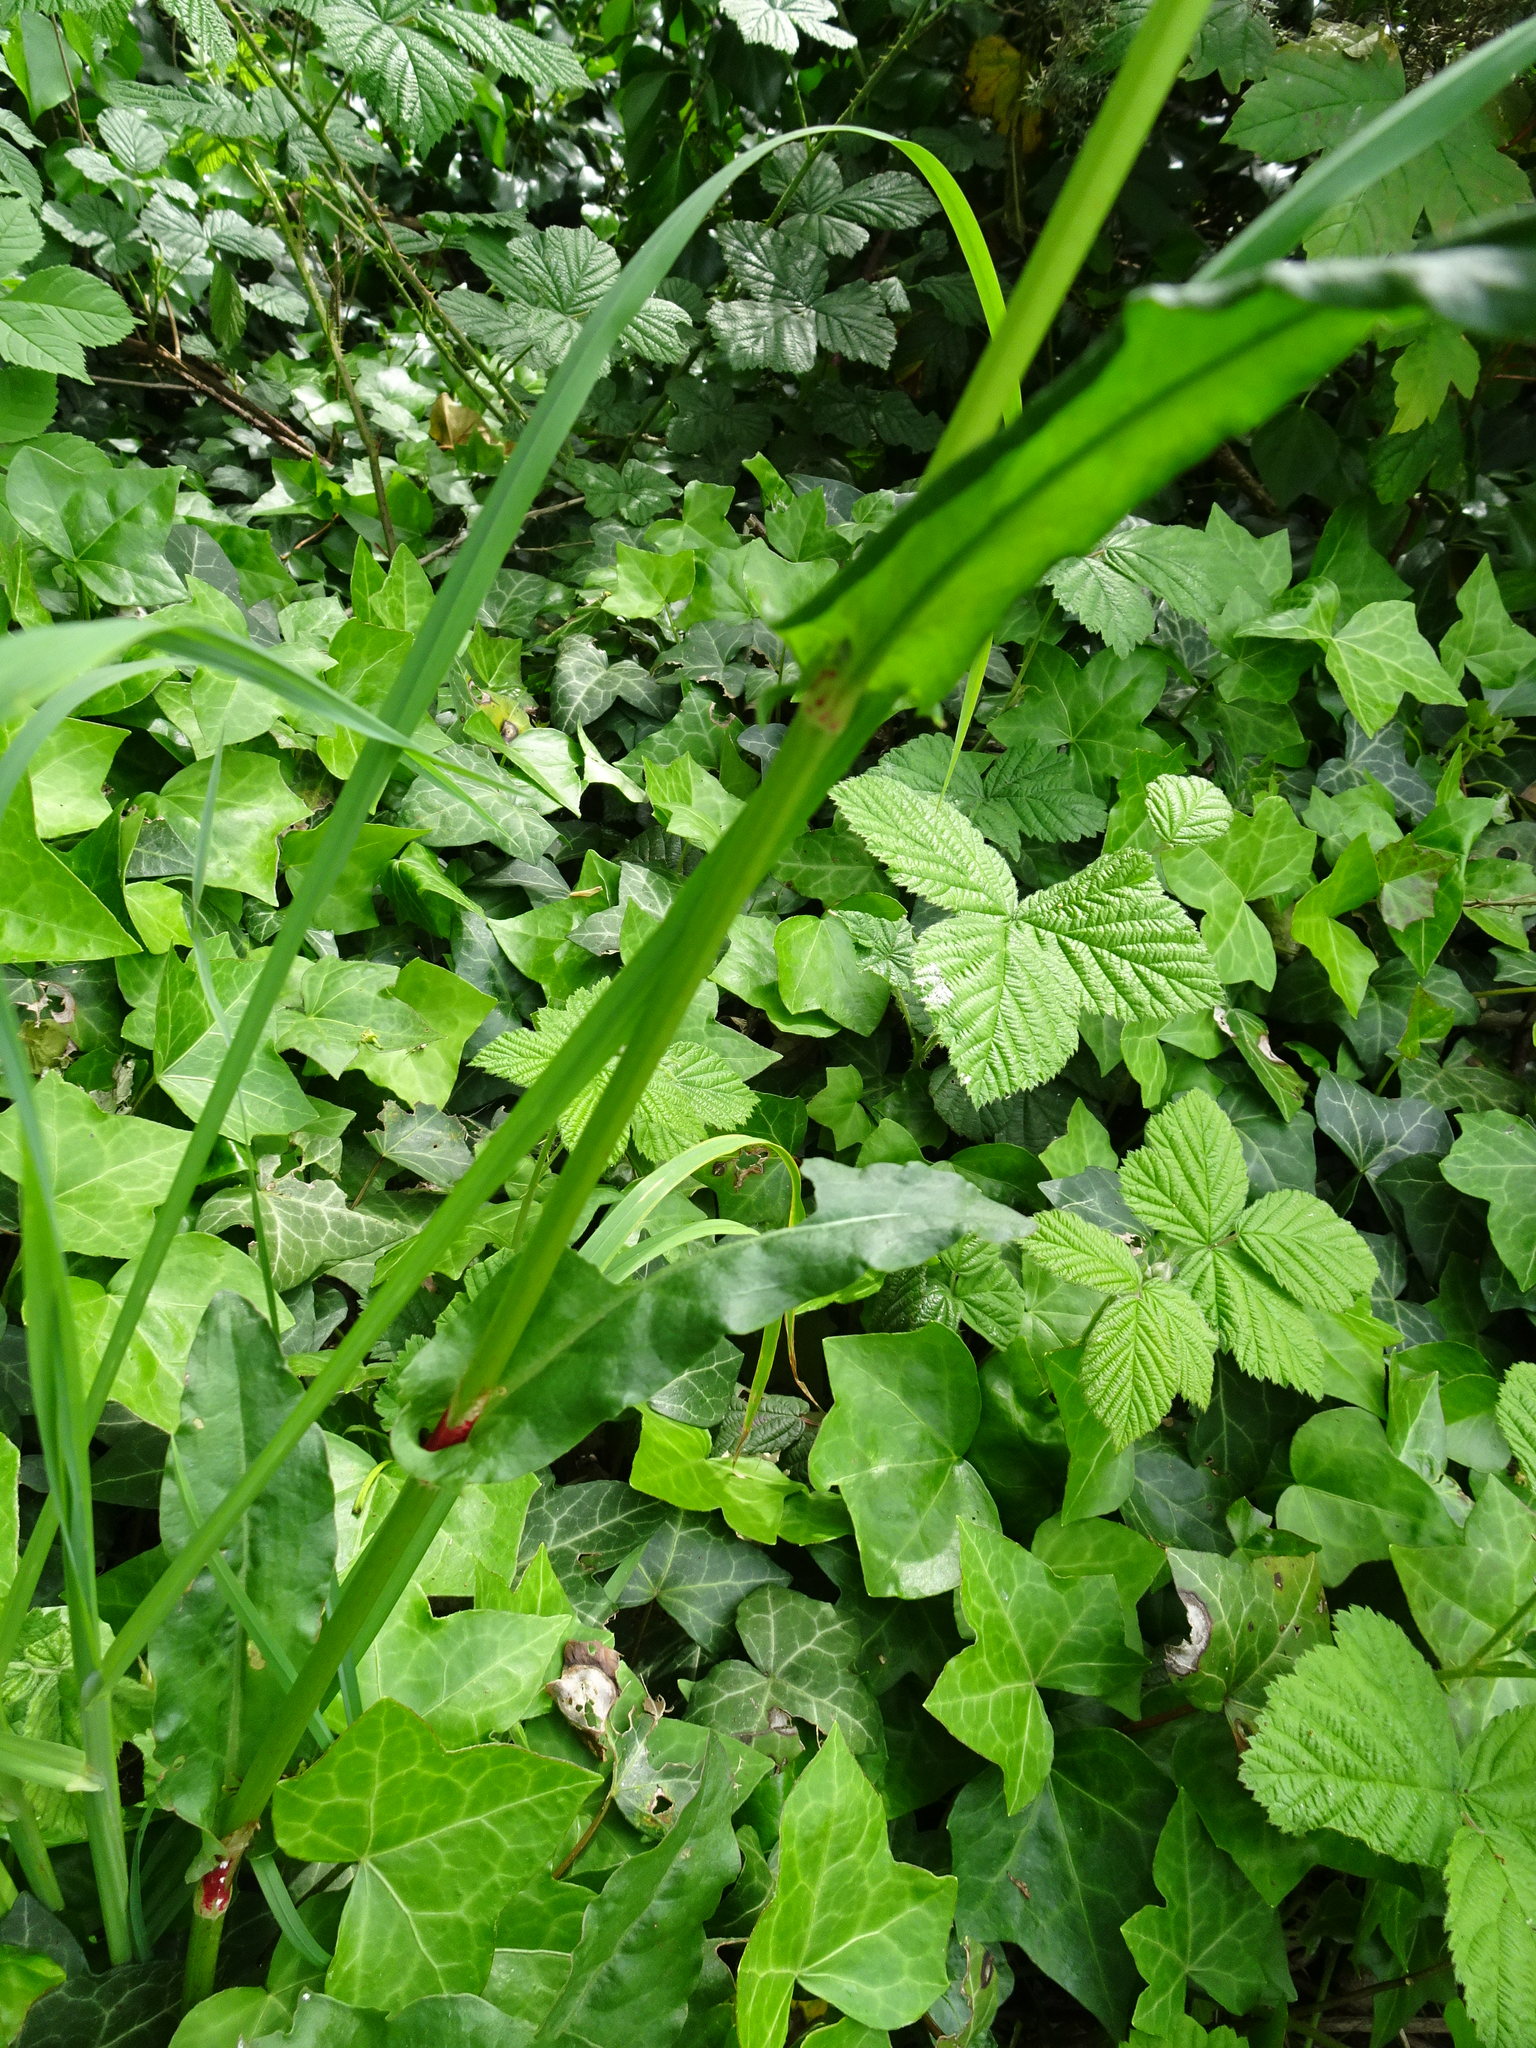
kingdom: Plantae
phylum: Tracheophyta
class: Magnoliopsida
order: Caryophyllales
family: Polygonaceae
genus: Rumex
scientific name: Rumex acetosa
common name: Garden sorrel
